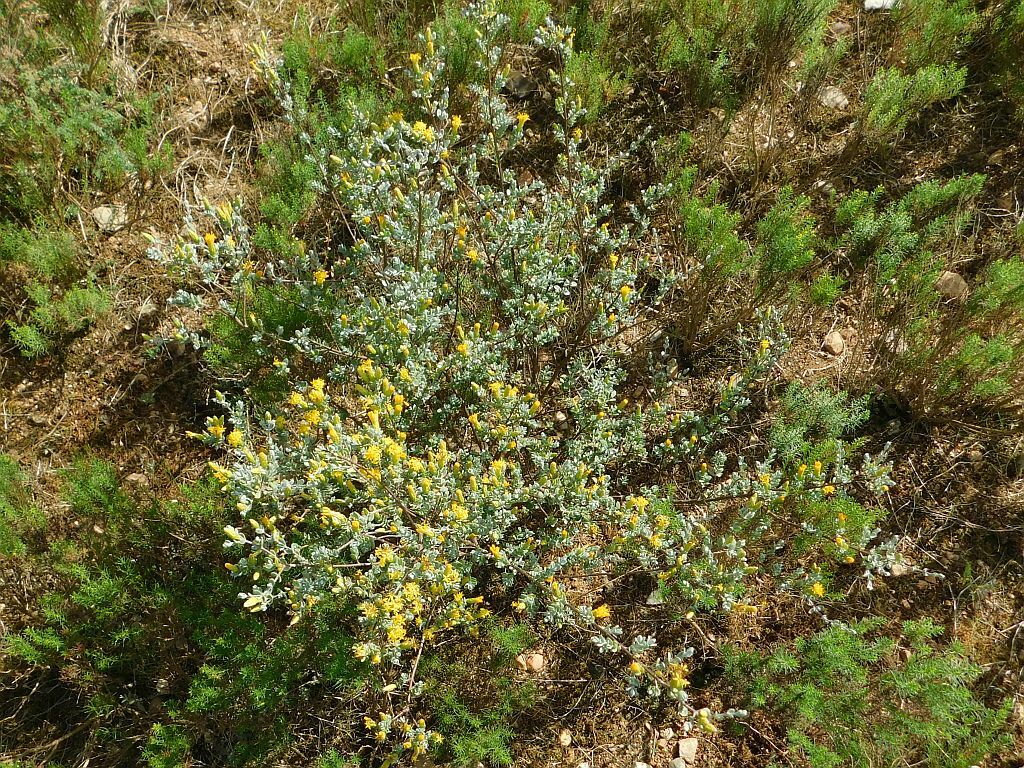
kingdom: Plantae
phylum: Tracheophyta
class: Magnoliopsida
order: Asterales
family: Asteraceae
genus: Pteronia
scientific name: Pteronia incana
